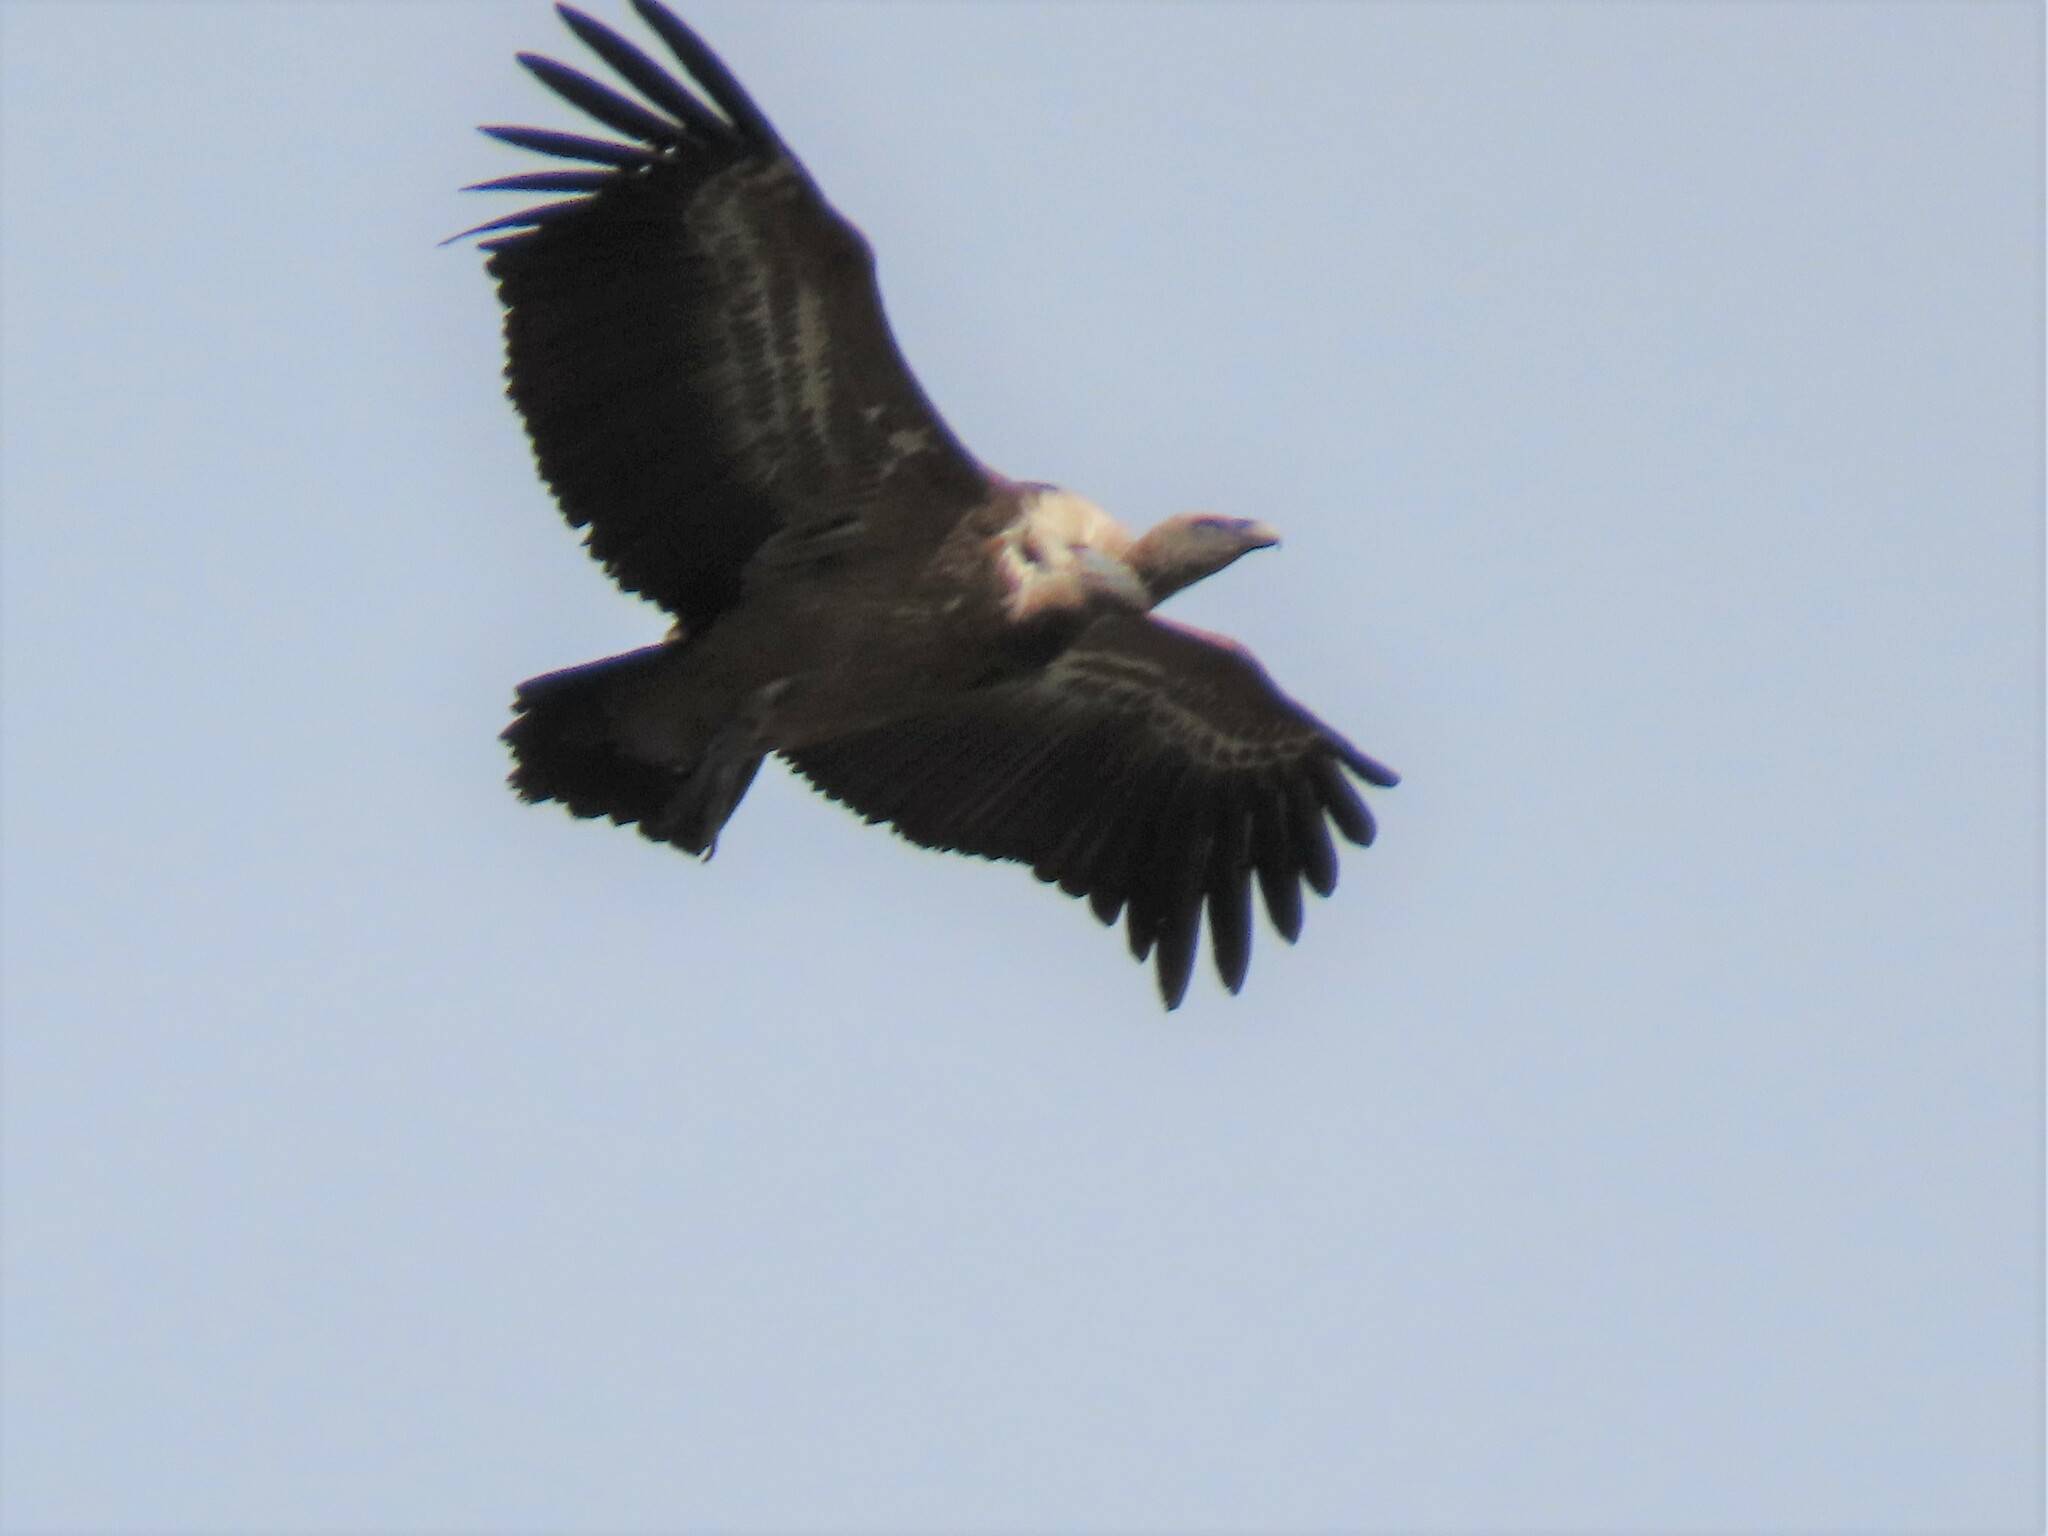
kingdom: Animalia
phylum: Chordata
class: Aves
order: Accipitriformes
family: Accipitridae
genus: Gyps
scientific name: Gyps fulvus
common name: Griffon vulture
